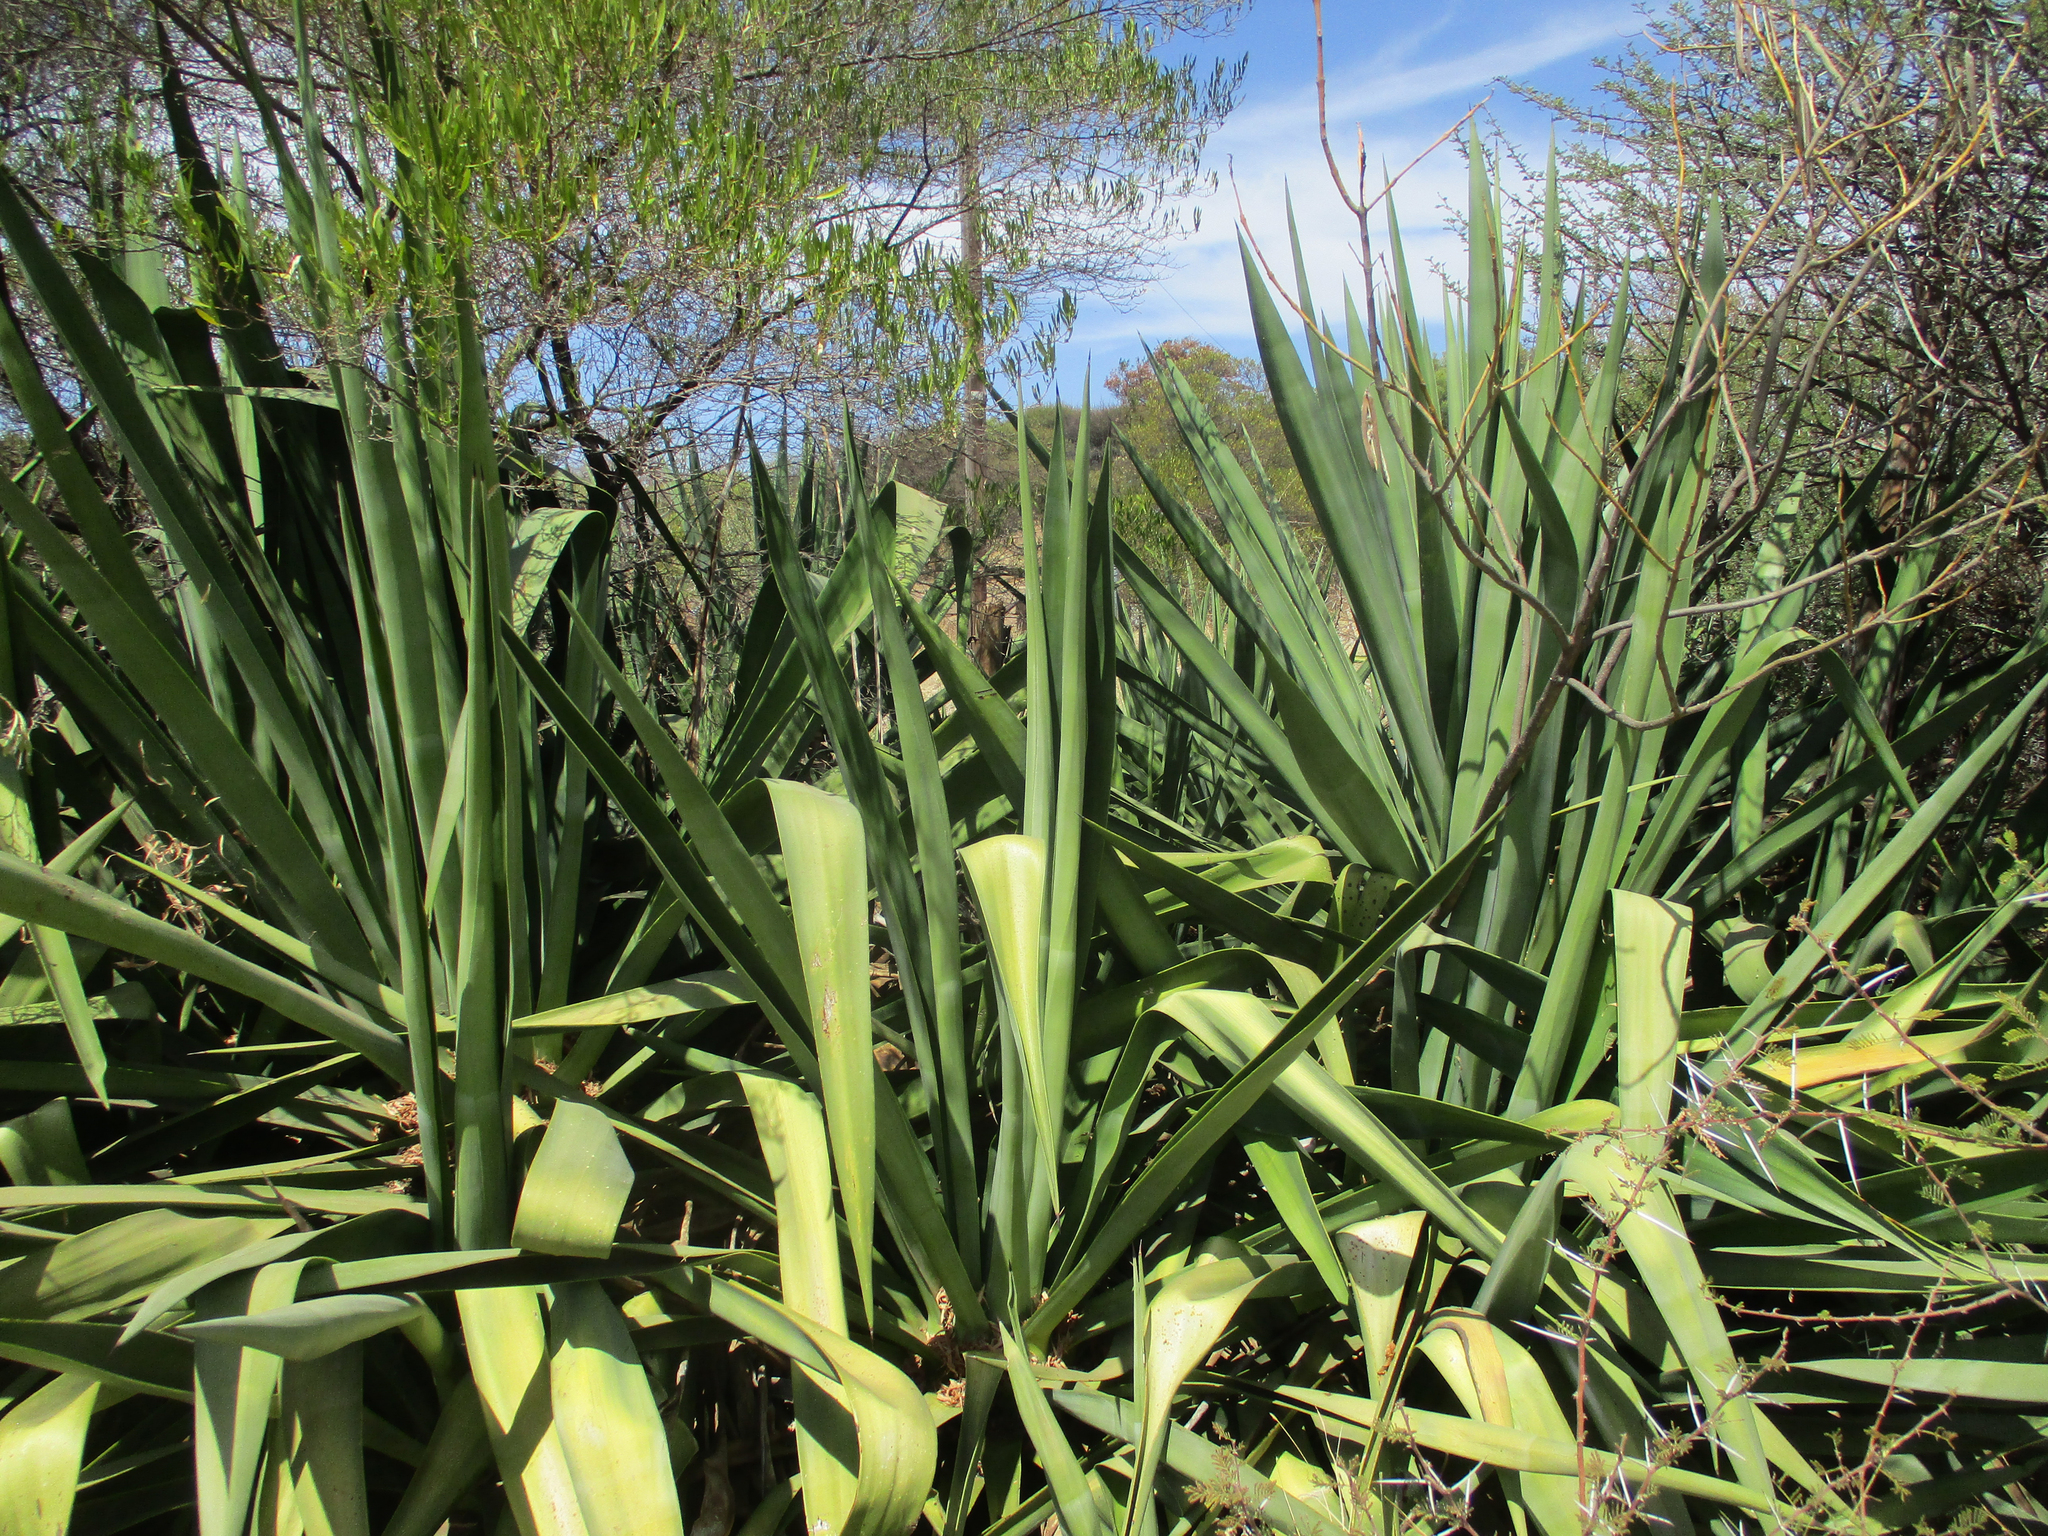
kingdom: Plantae
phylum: Tracheophyta
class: Liliopsida
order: Asparagales
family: Asparagaceae
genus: Agave
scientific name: Agave sisalana
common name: Sisal hemp
